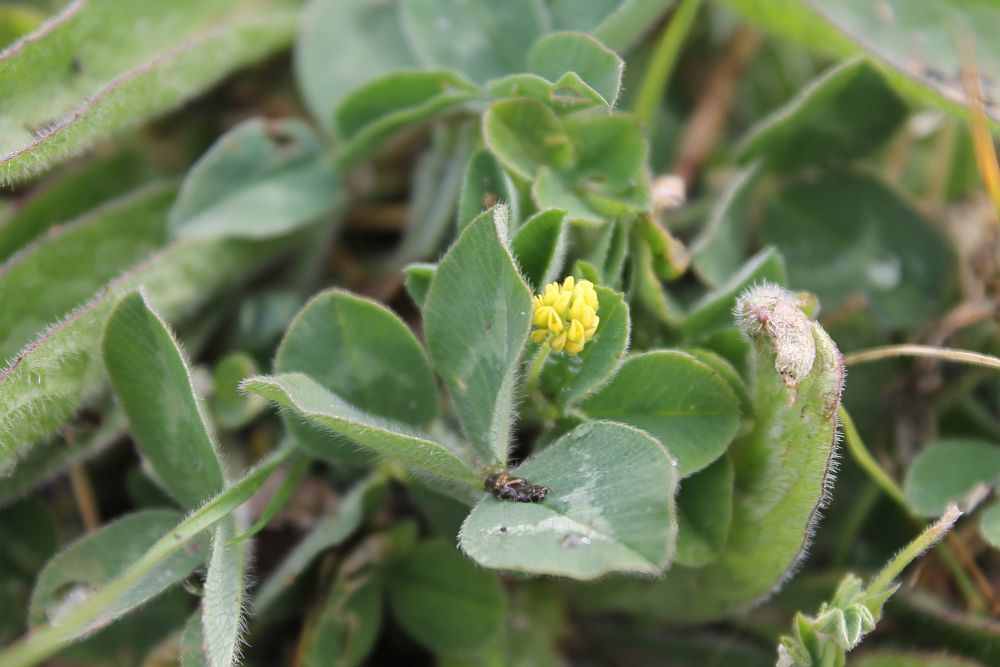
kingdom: Plantae
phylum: Tracheophyta
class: Magnoliopsida
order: Fabales
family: Fabaceae
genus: Medicago
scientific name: Medicago lupulina
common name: Black medick
